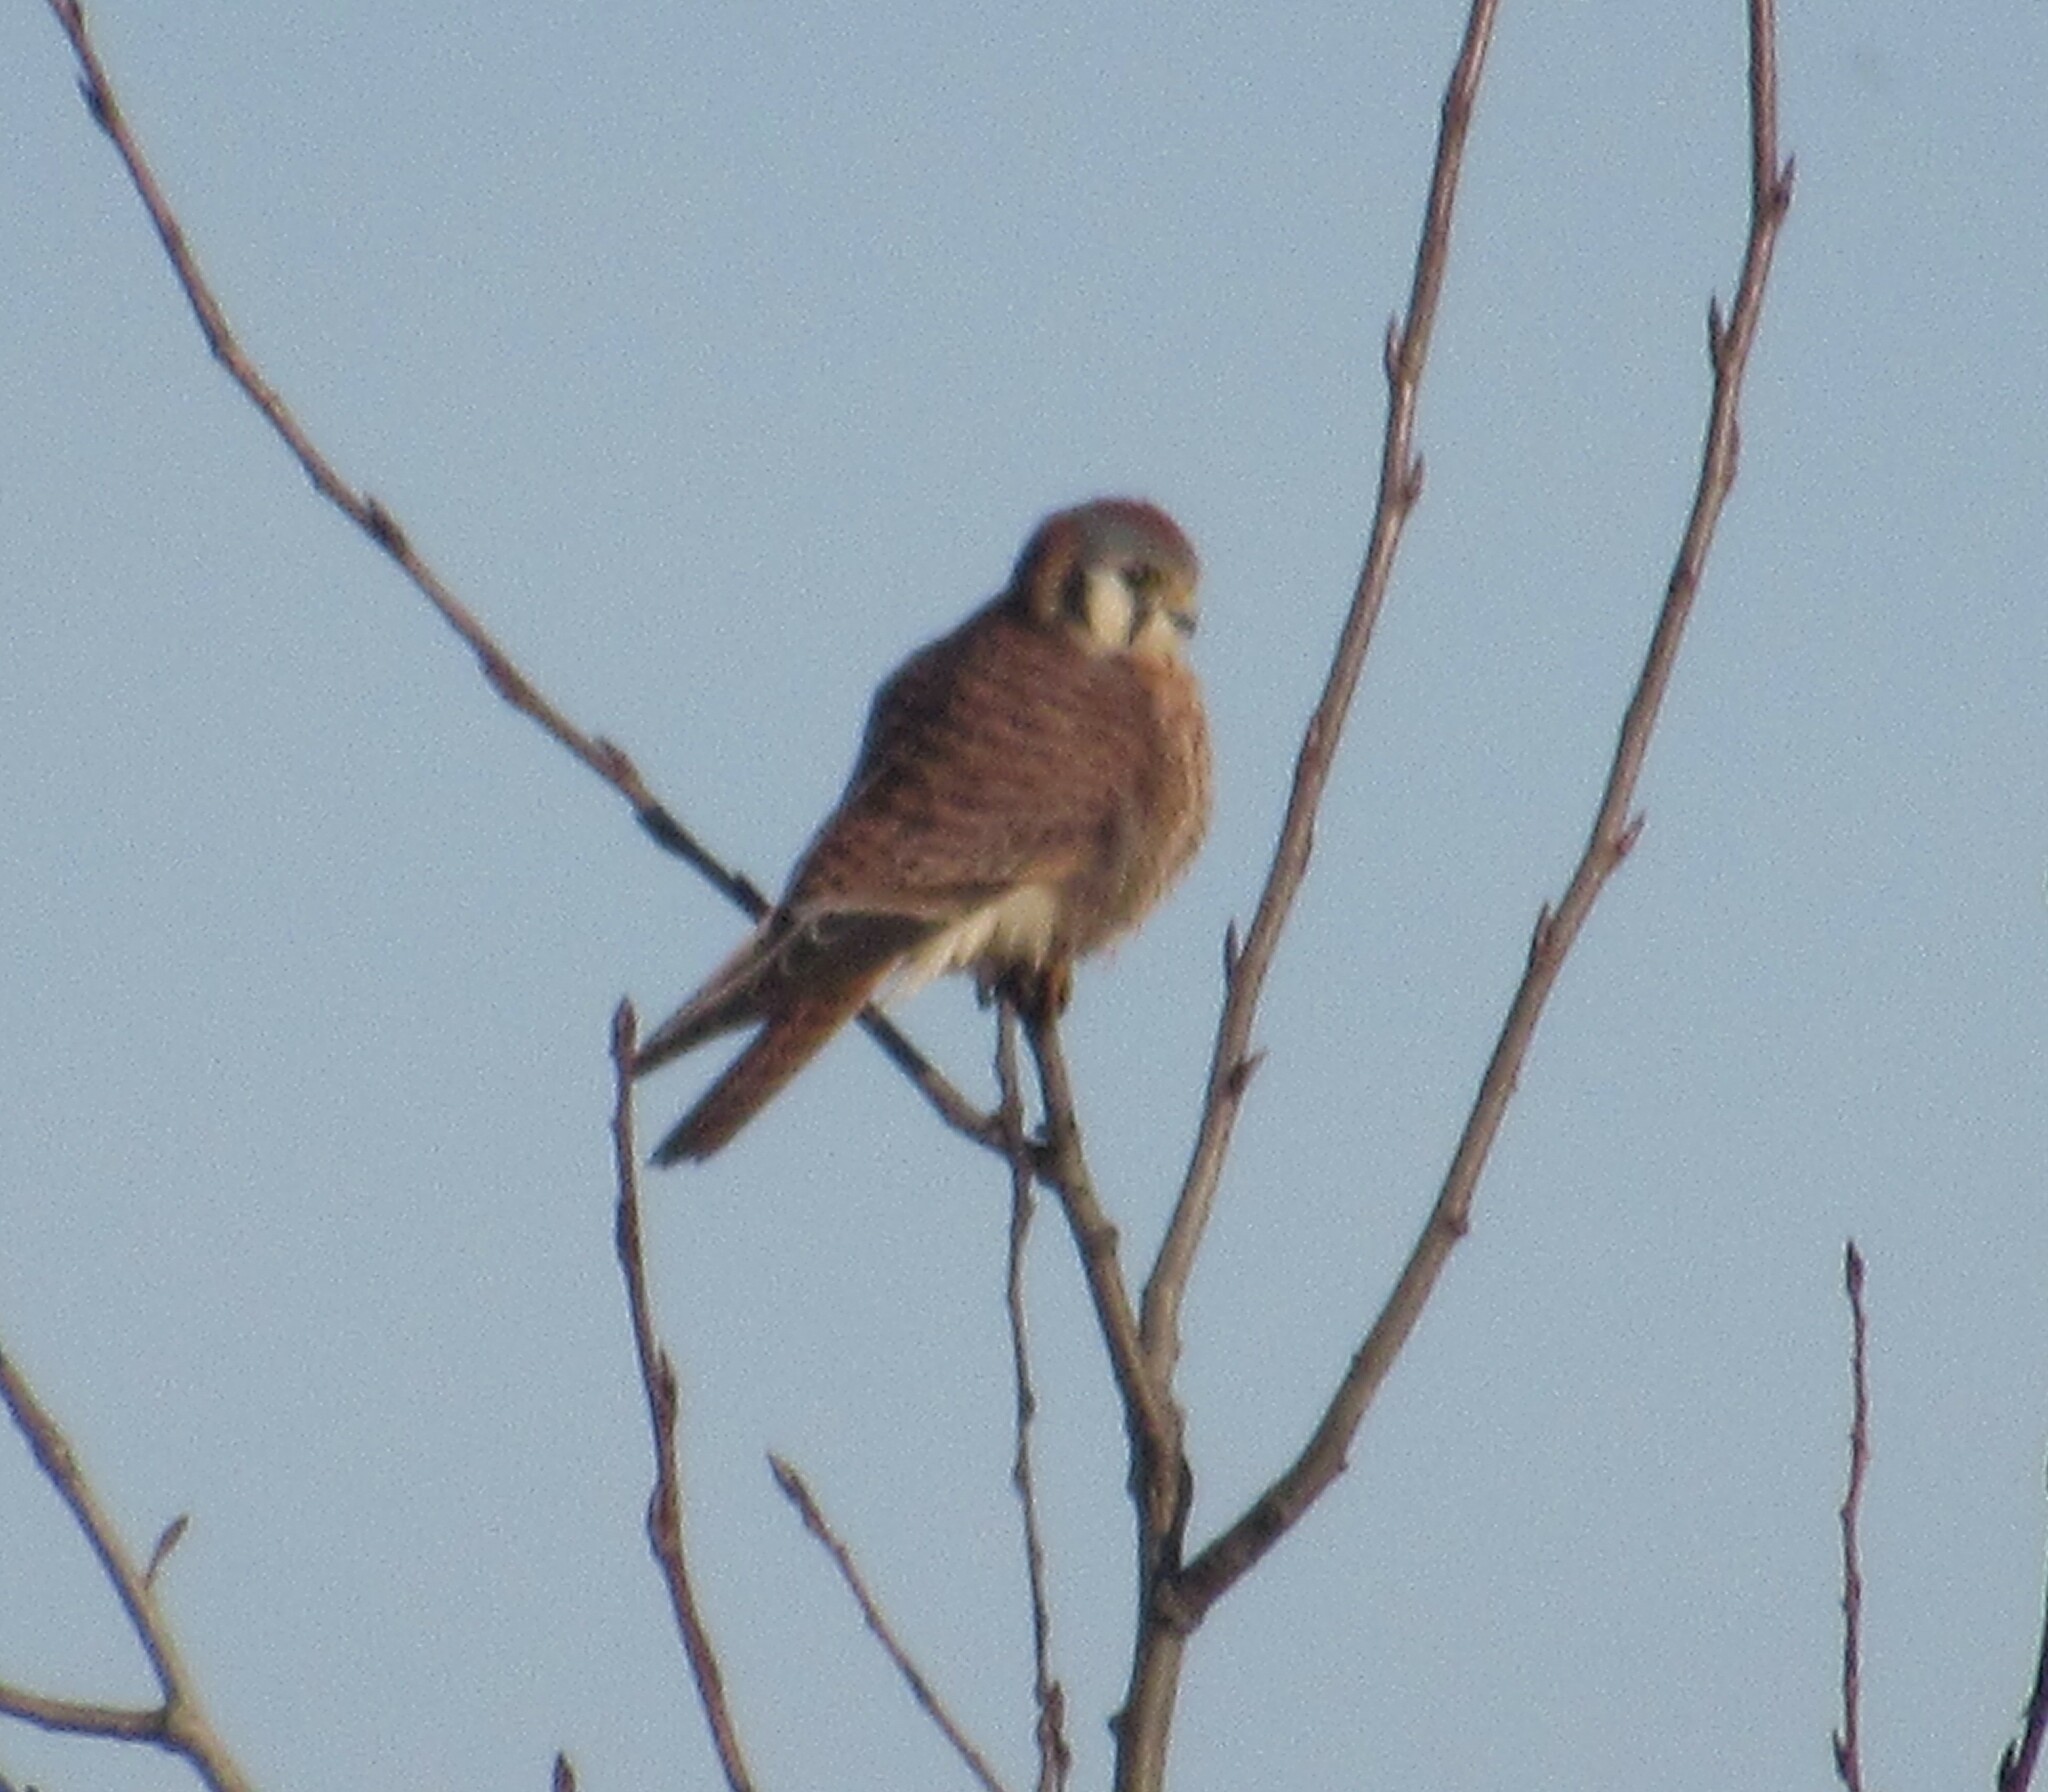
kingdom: Animalia
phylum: Chordata
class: Aves
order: Falconiformes
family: Falconidae
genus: Falco
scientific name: Falco sparverius
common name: American kestrel
